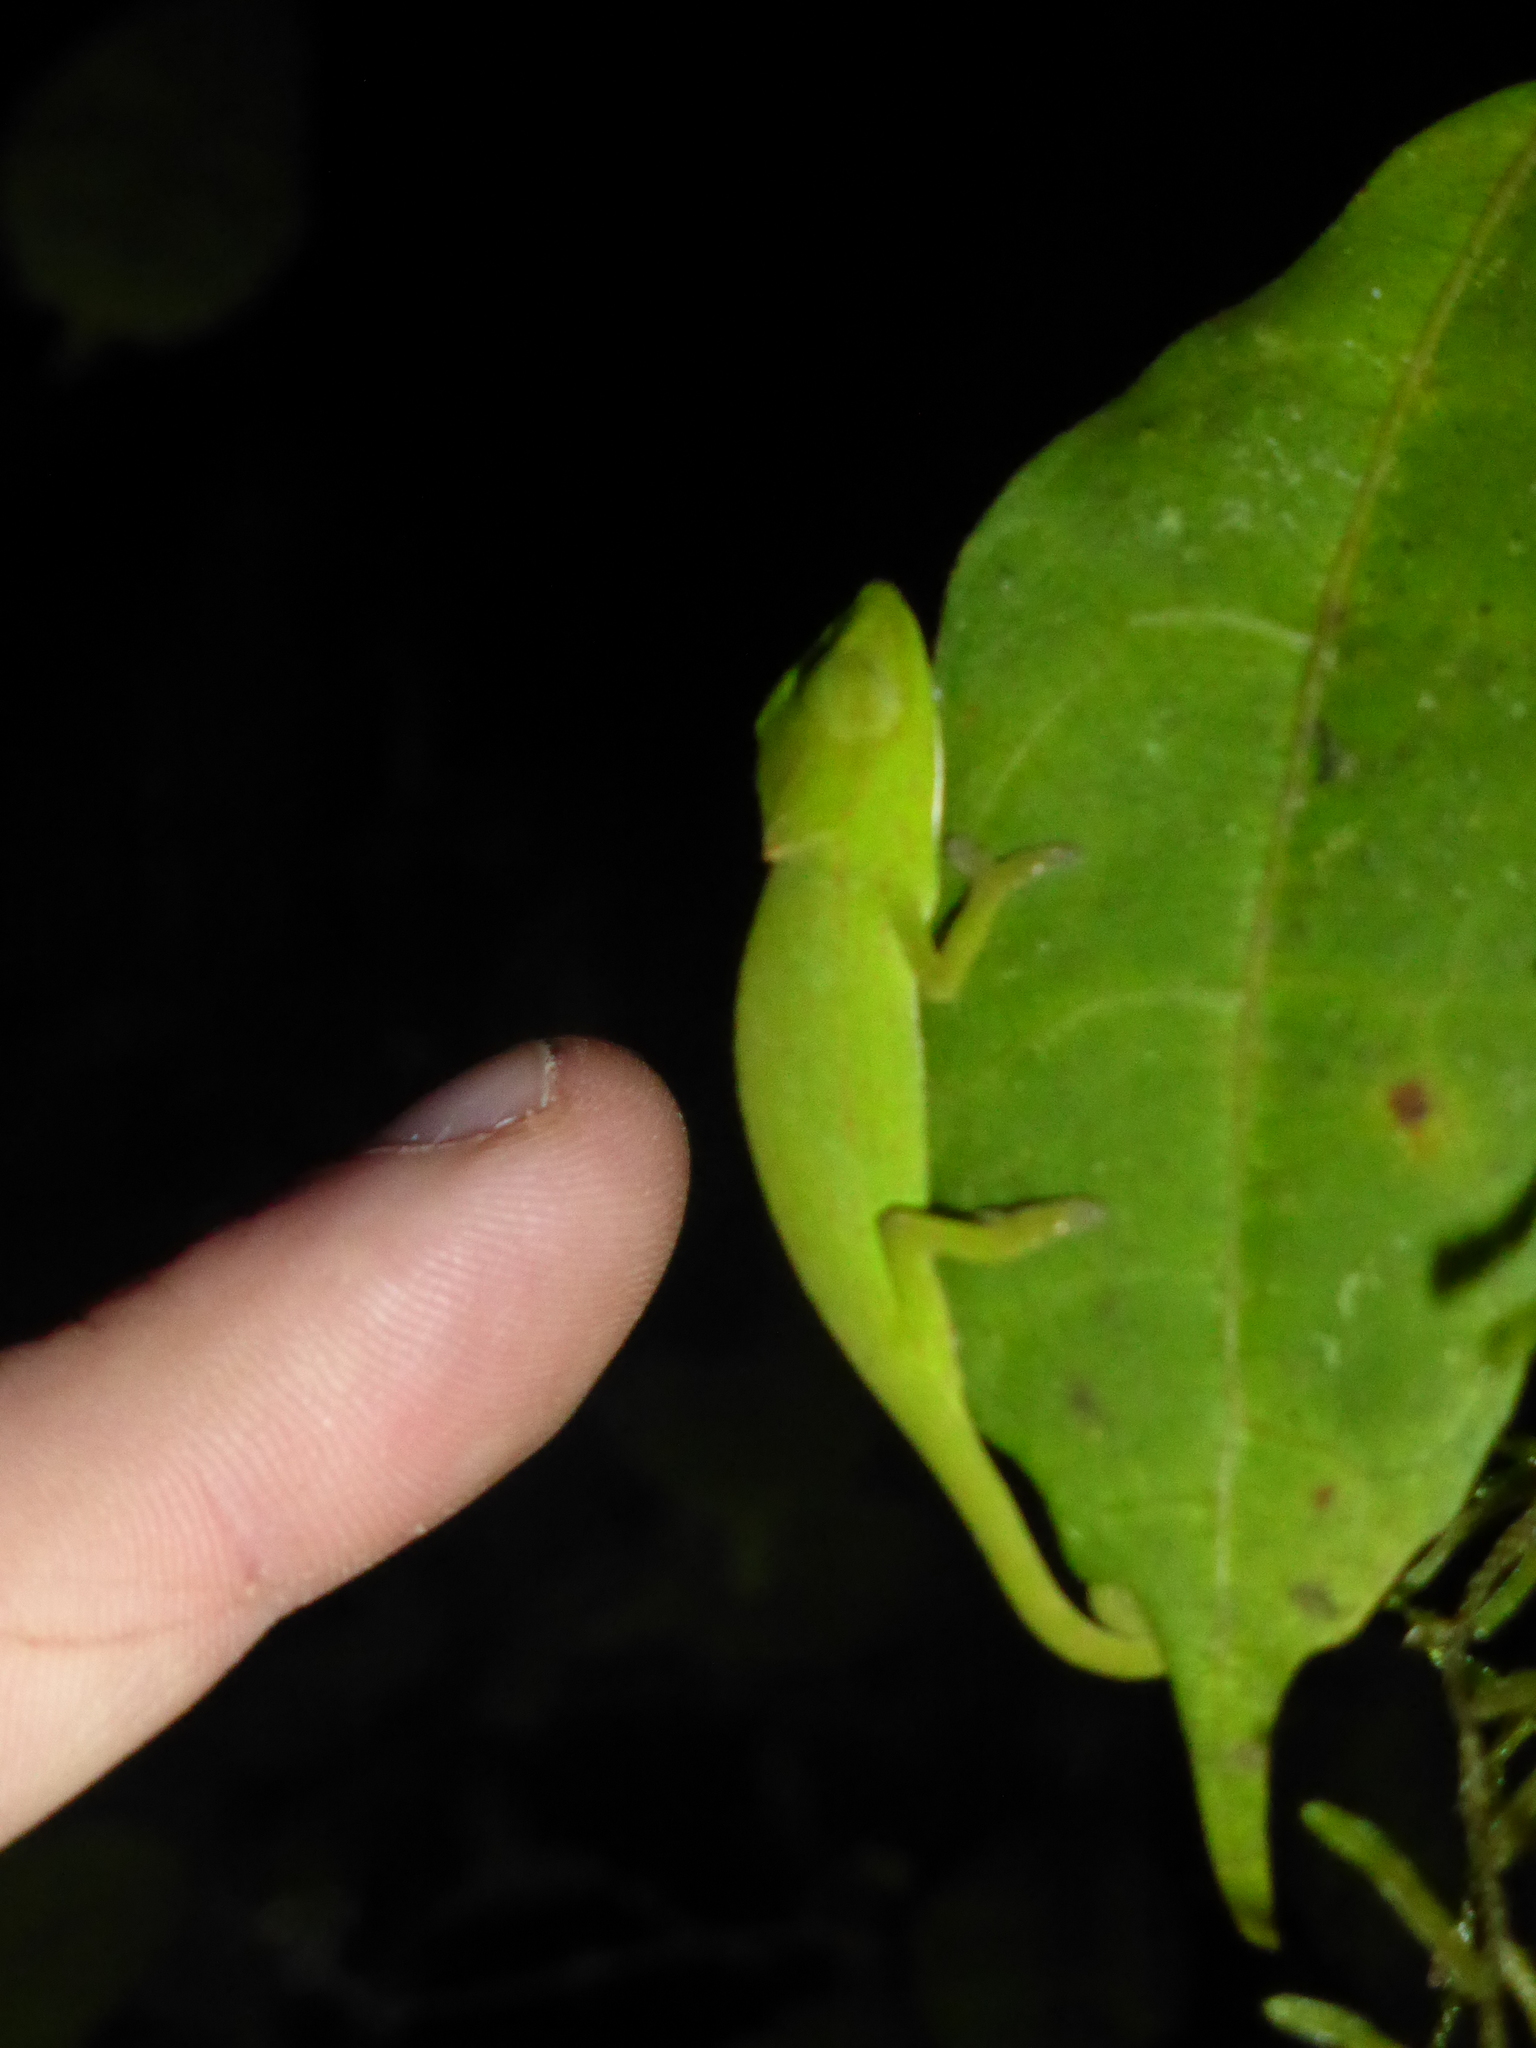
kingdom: Animalia
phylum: Chordata
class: Squamata
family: Chamaeleonidae
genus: Calumma
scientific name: Calumma glawi
